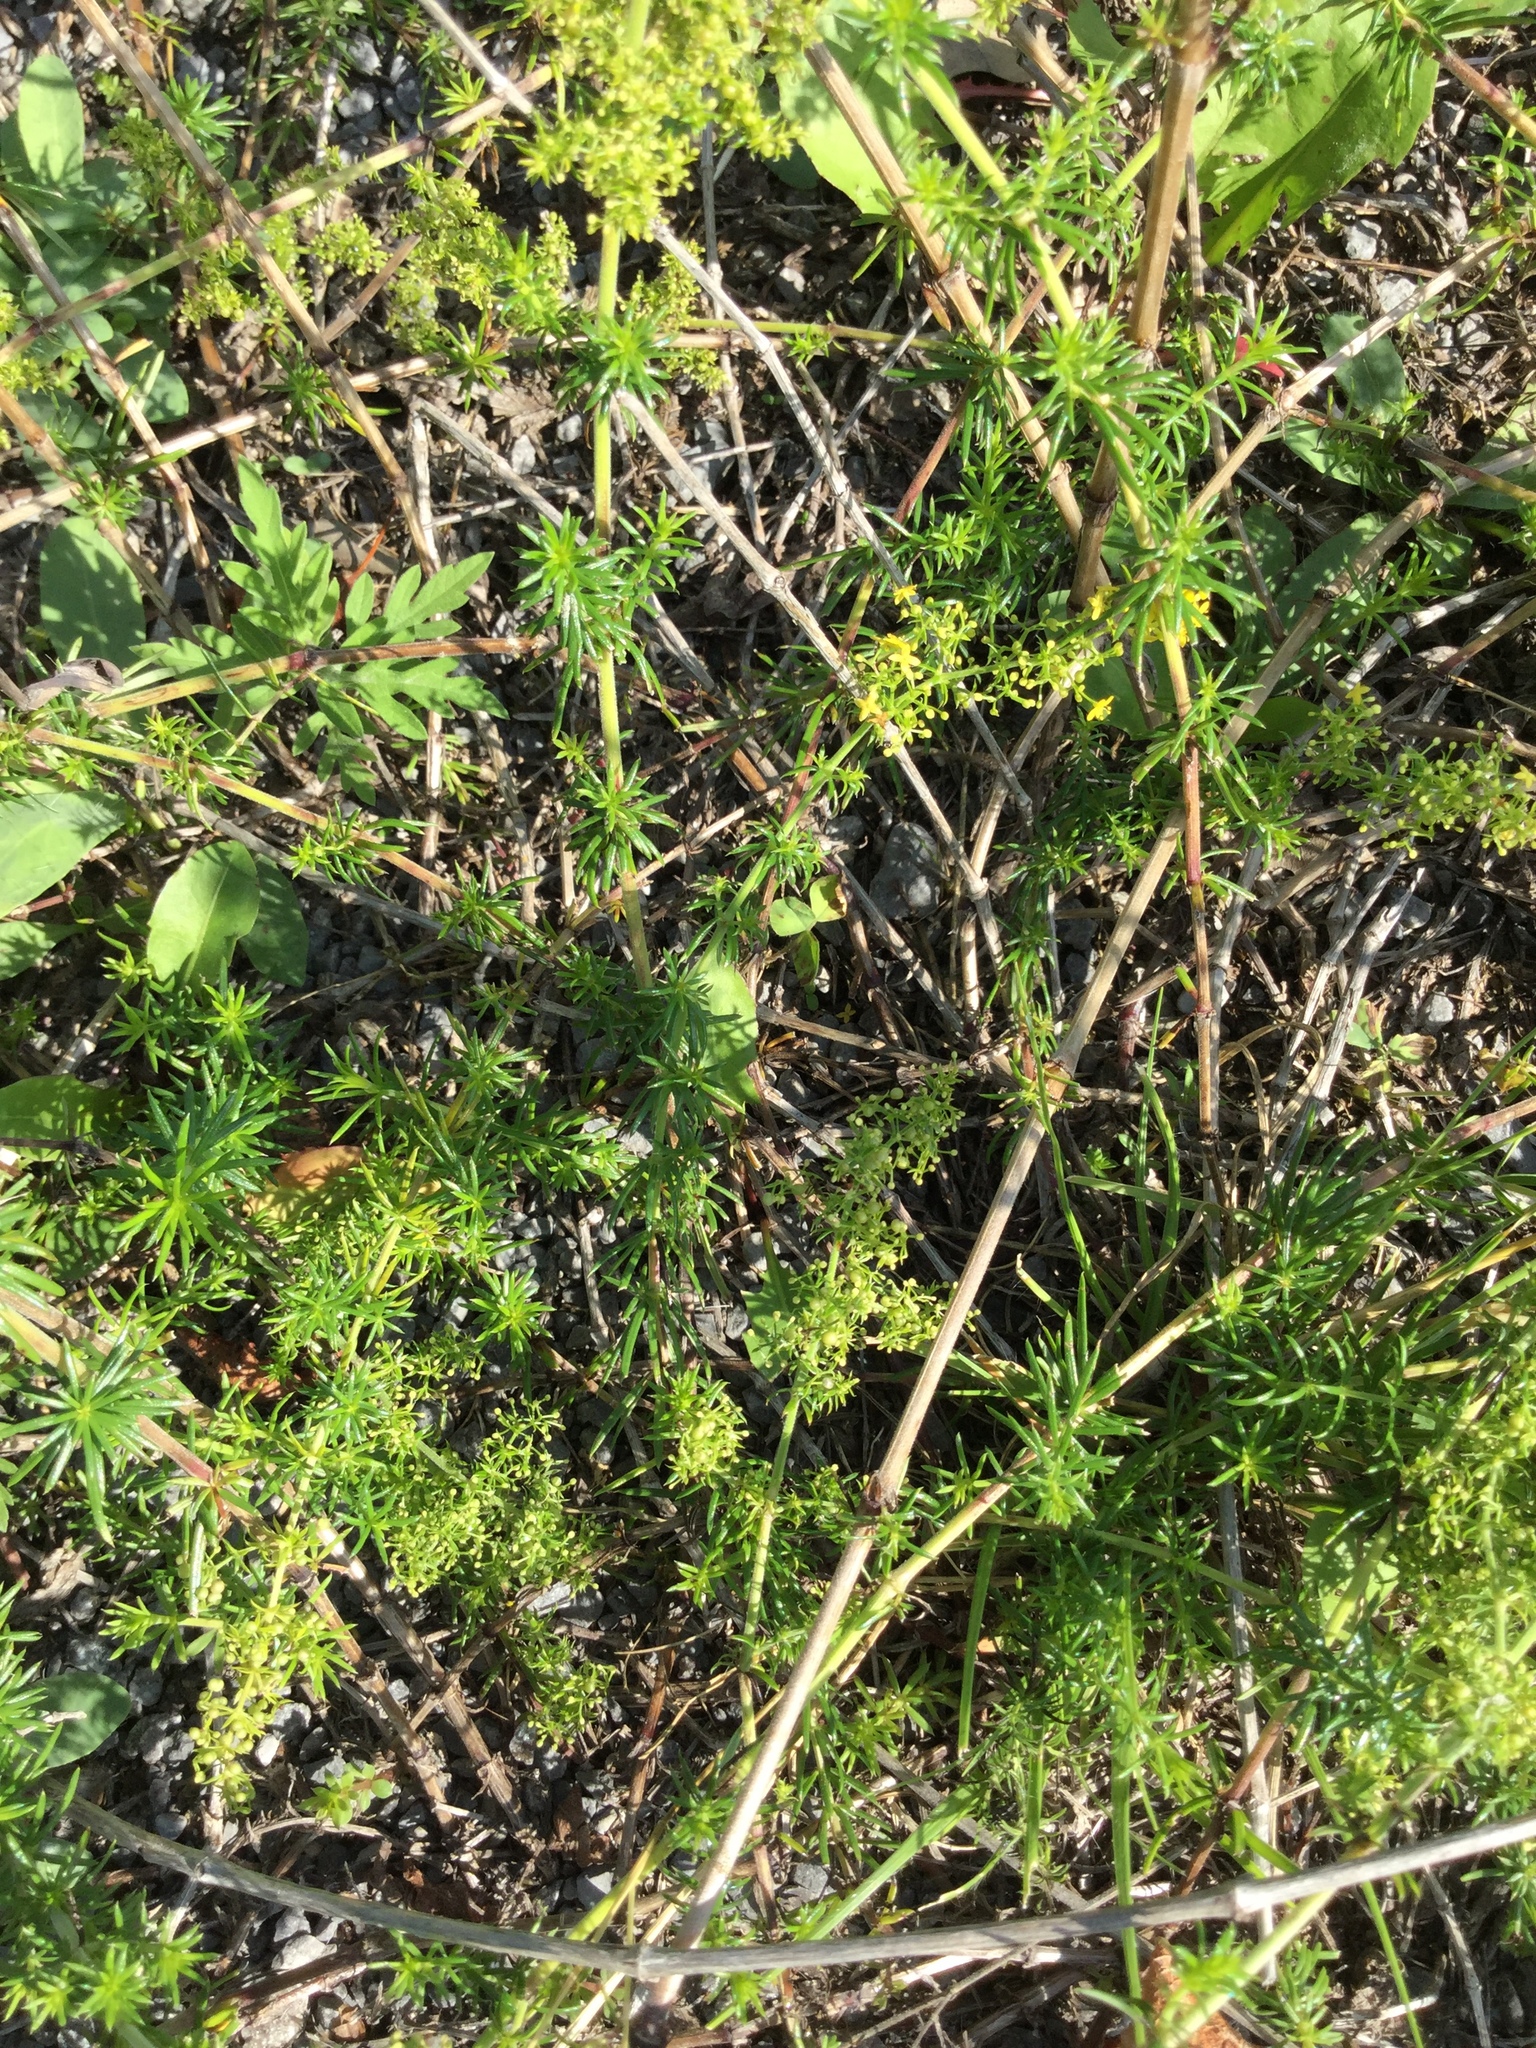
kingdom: Plantae
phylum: Tracheophyta
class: Magnoliopsida
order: Gentianales
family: Rubiaceae
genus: Galium
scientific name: Galium verum
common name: Lady's bedstraw
